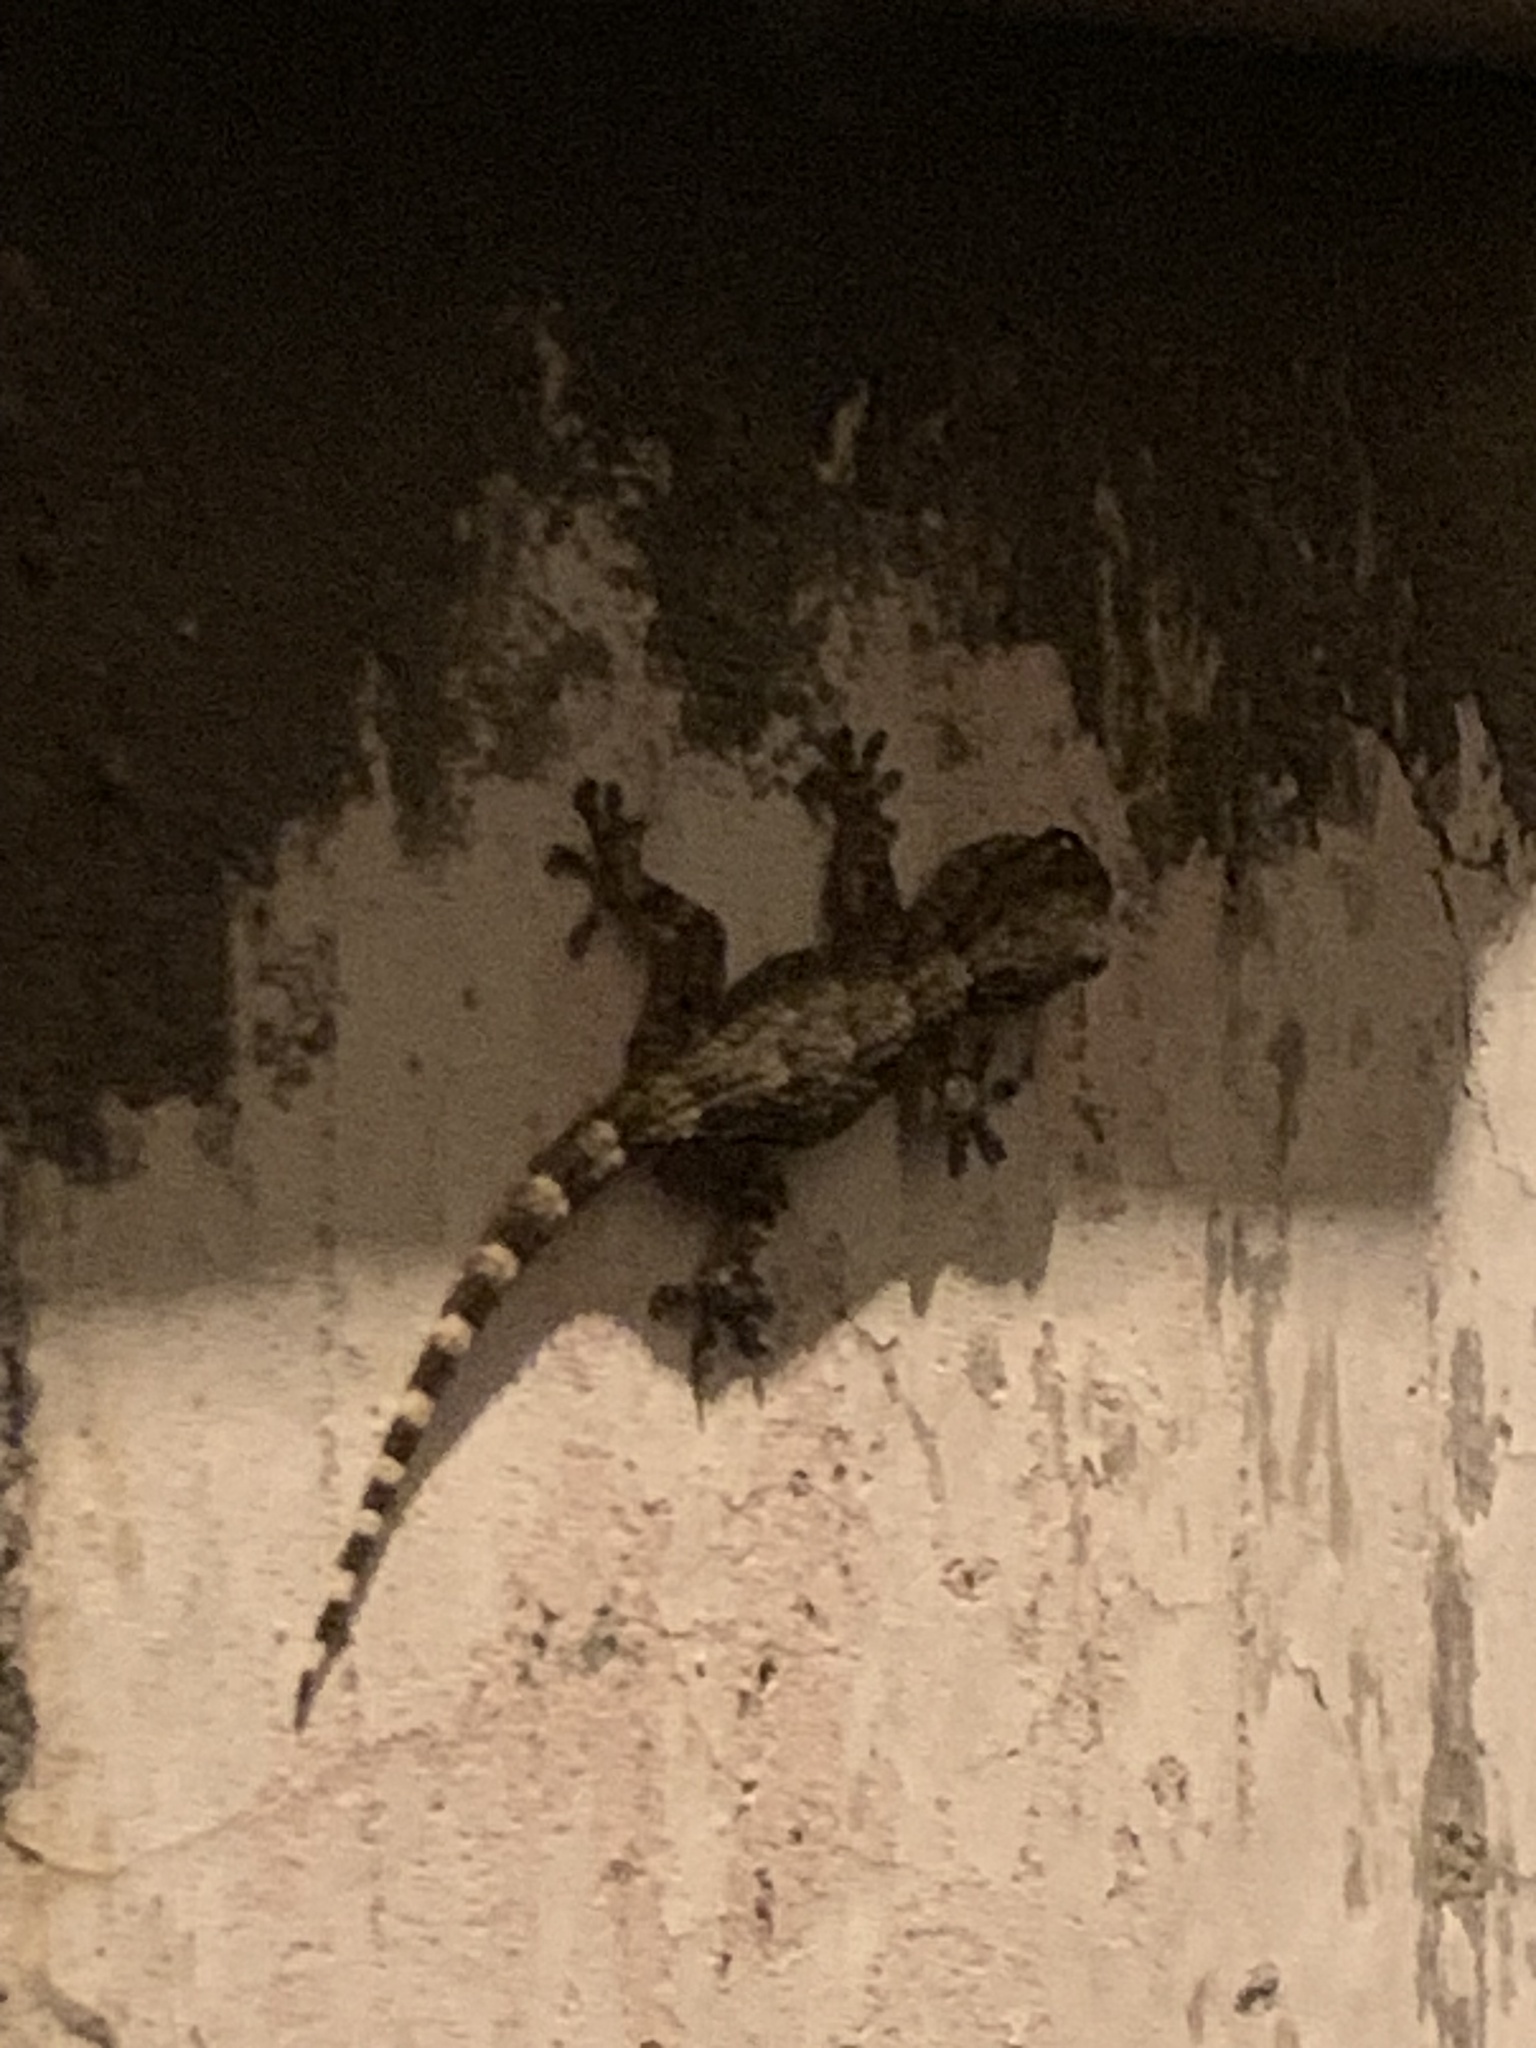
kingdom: Animalia
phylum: Chordata
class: Squamata
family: Phyllodactylidae
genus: Tarentola
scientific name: Tarentola mauritanica
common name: Moorish gecko
